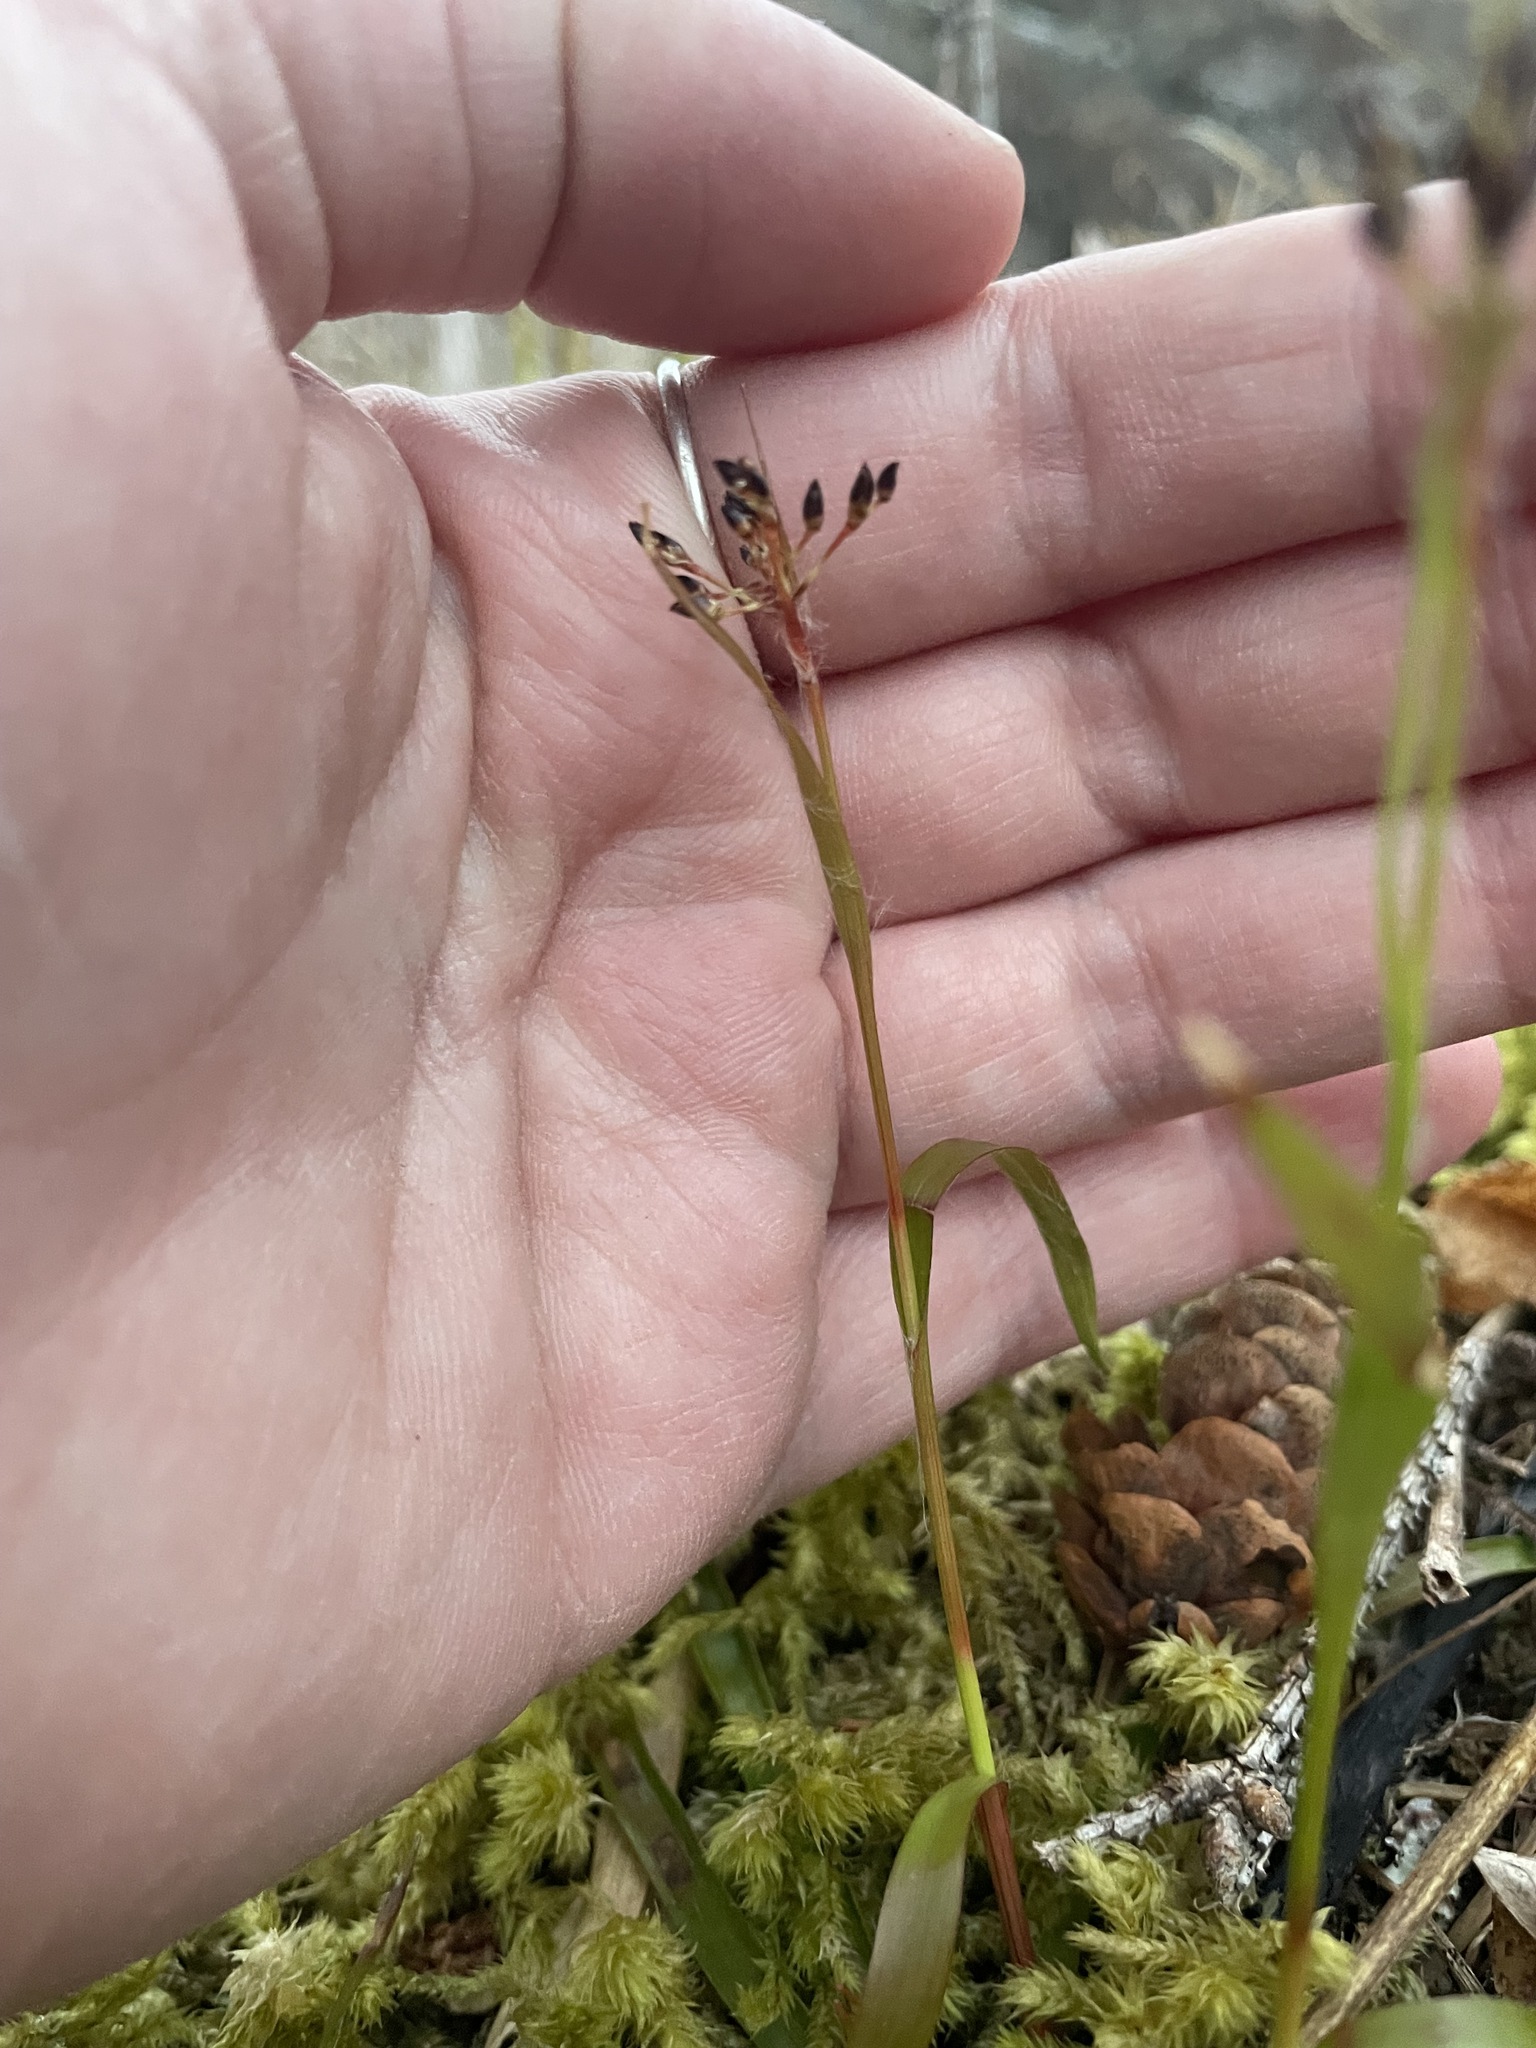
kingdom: Plantae
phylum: Tracheophyta
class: Liliopsida
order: Poales
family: Juncaceae
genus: Luzula
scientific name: Luzula acuminata
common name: Hairy woodrush
